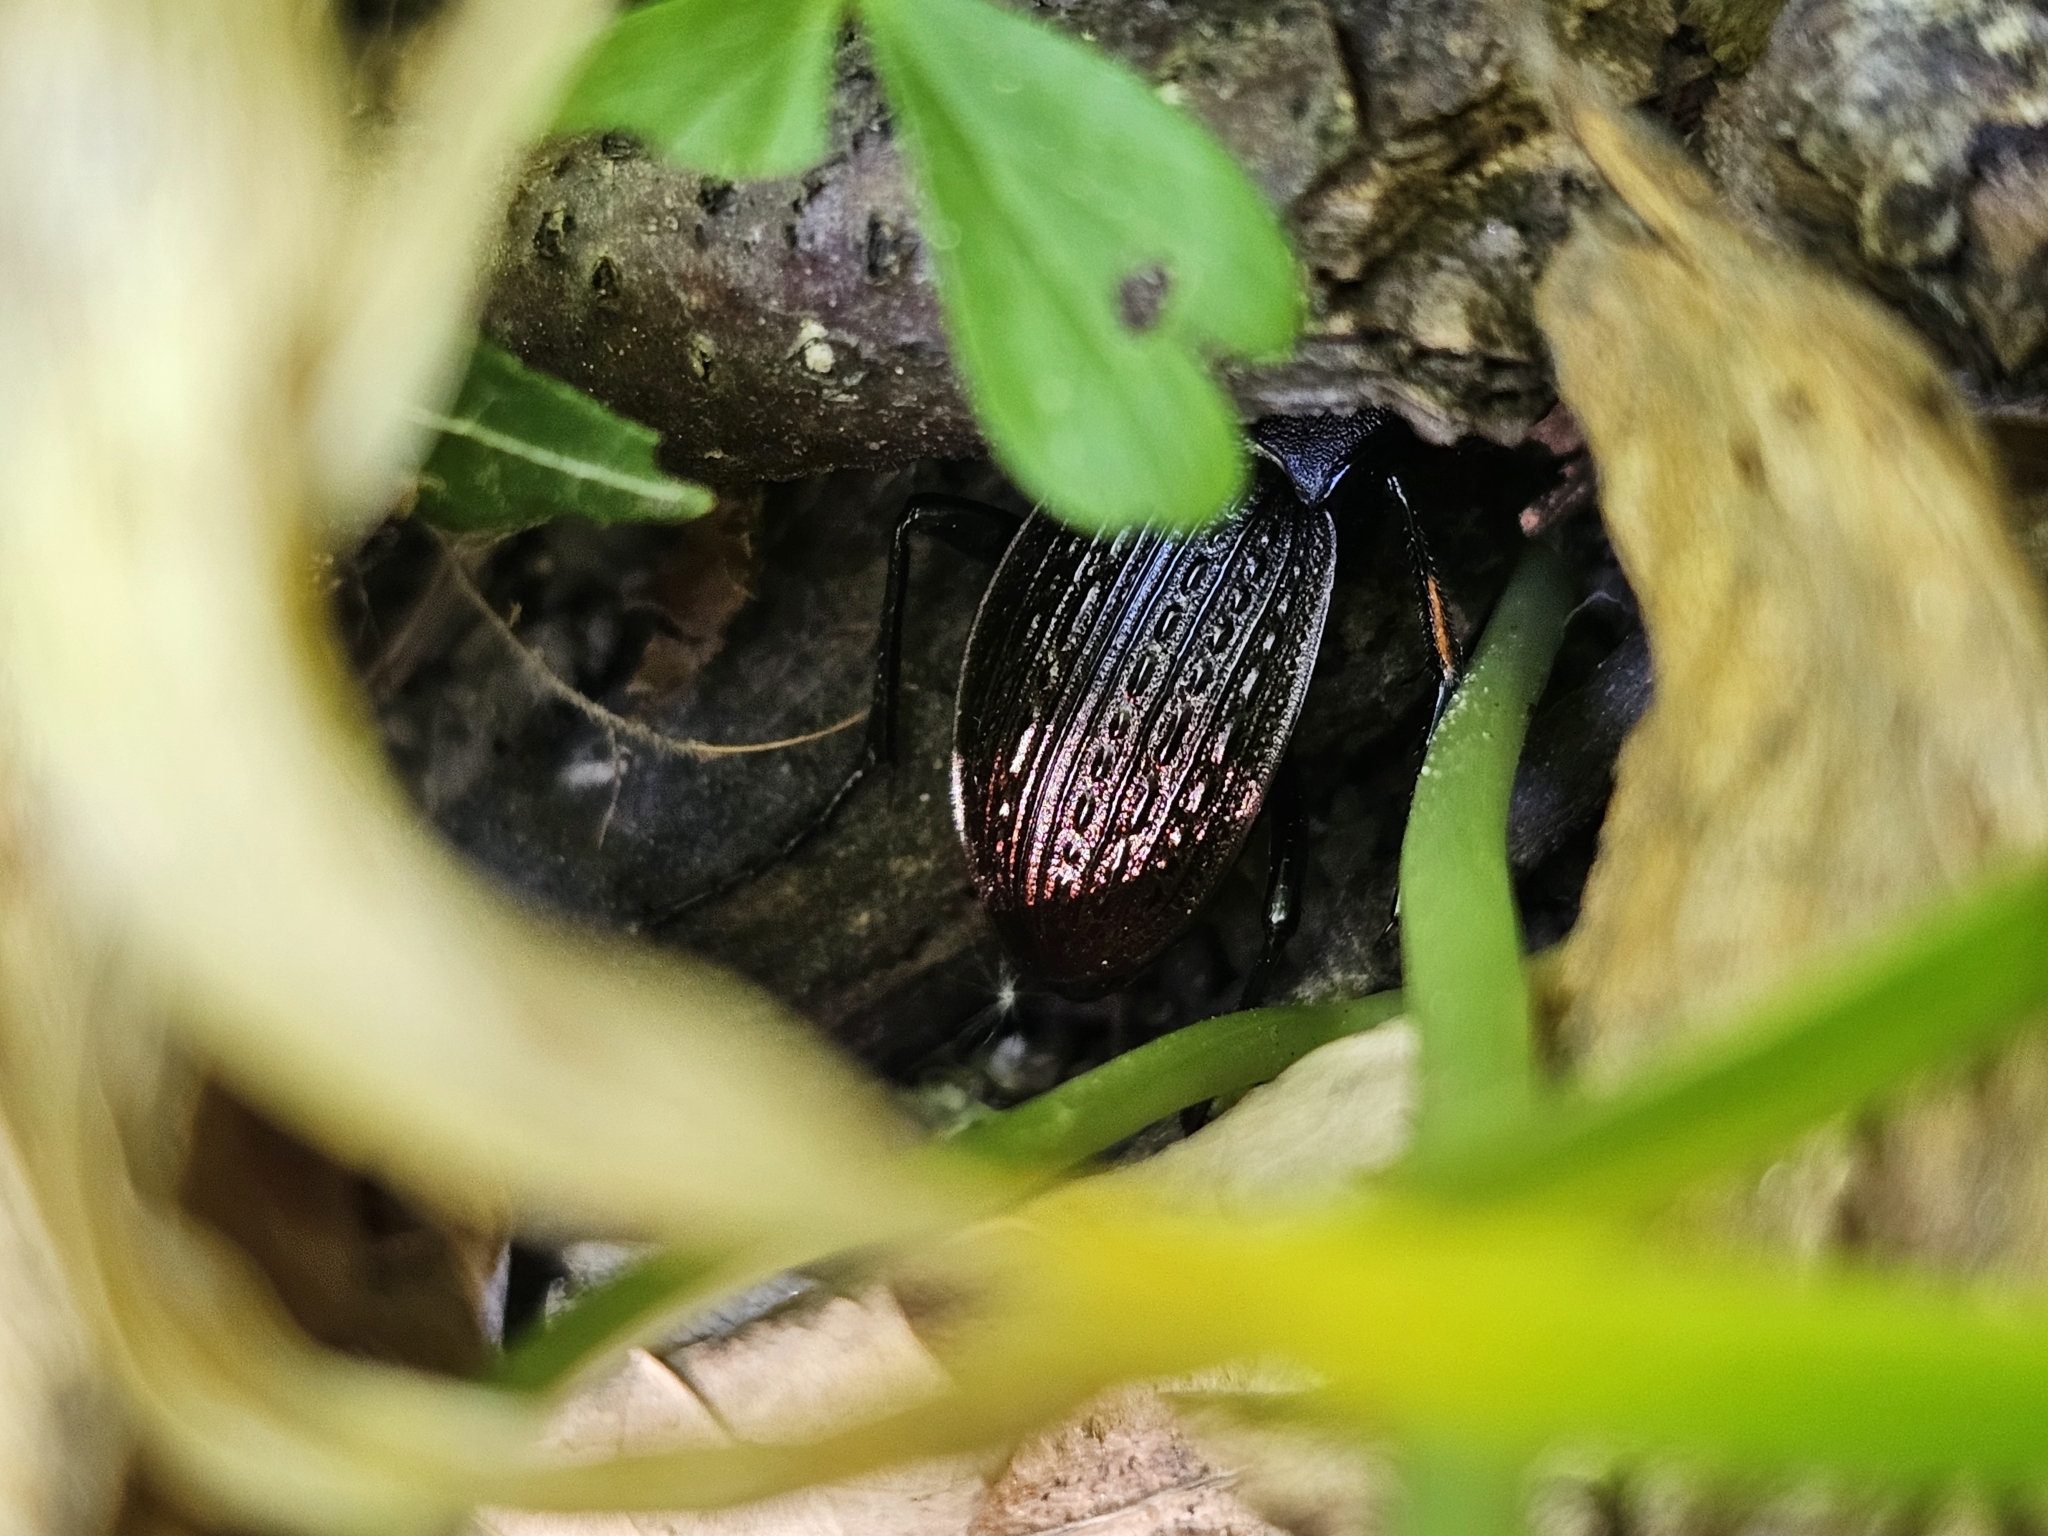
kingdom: Animalia
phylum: Arthropoda
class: Insecta
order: Coleoptera
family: Carabidae
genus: Carabus
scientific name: Carabus ulrichii
